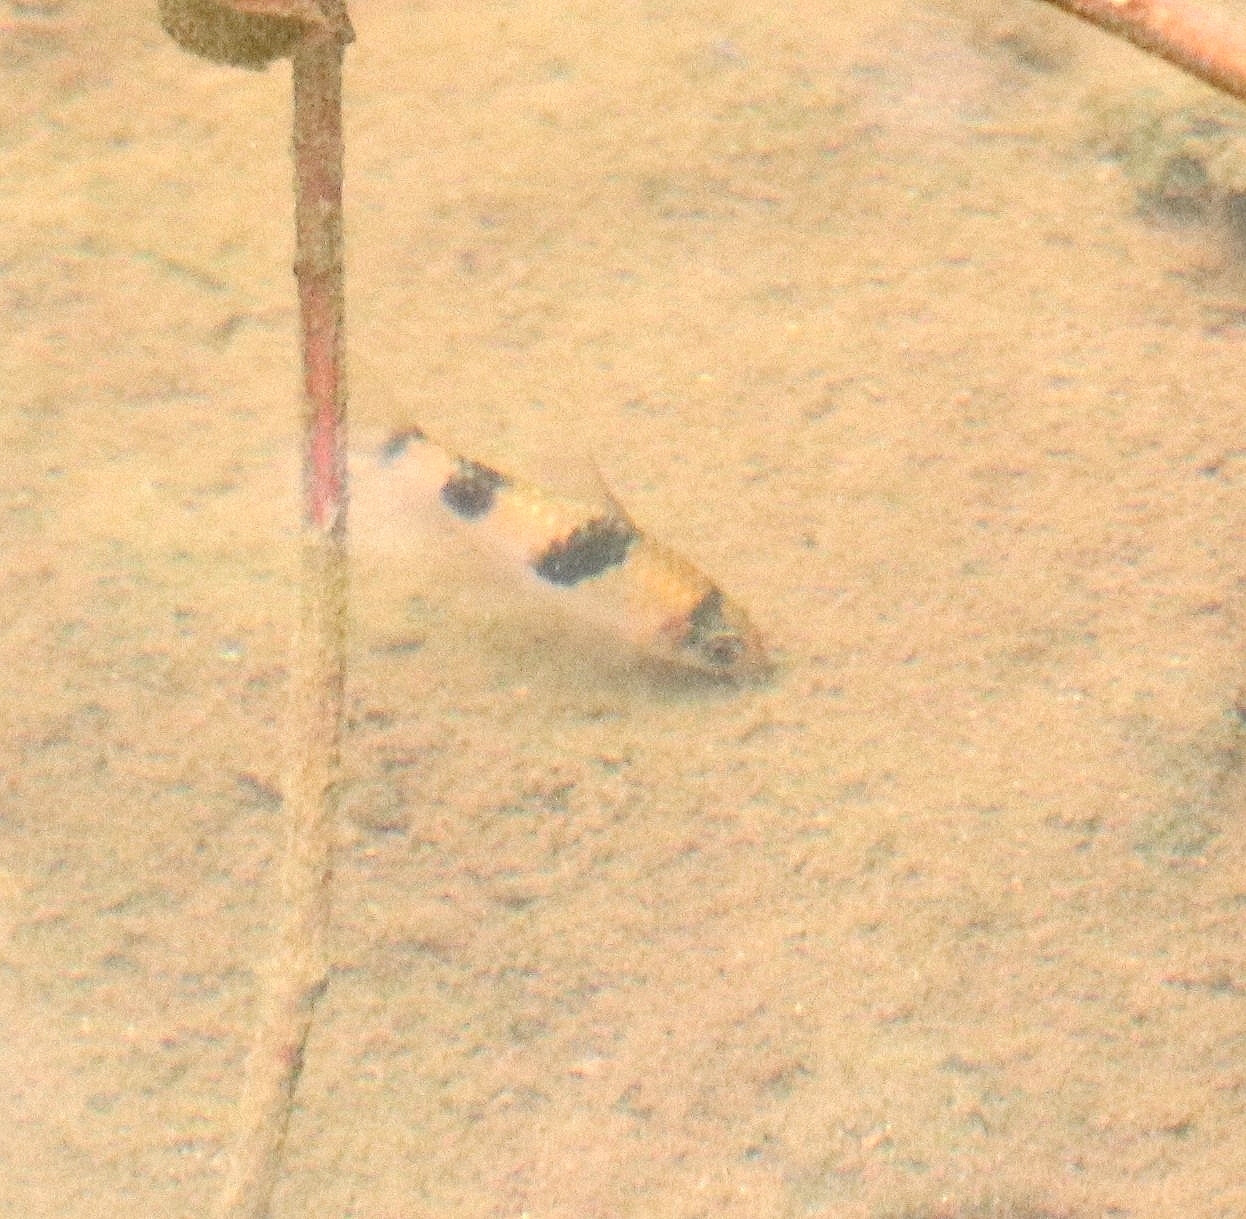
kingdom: Animalia
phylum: Chordata
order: Cypriniformes
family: Cyprinidae
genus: Haludaria
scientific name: Haludaria fasciata
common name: Melon barb
